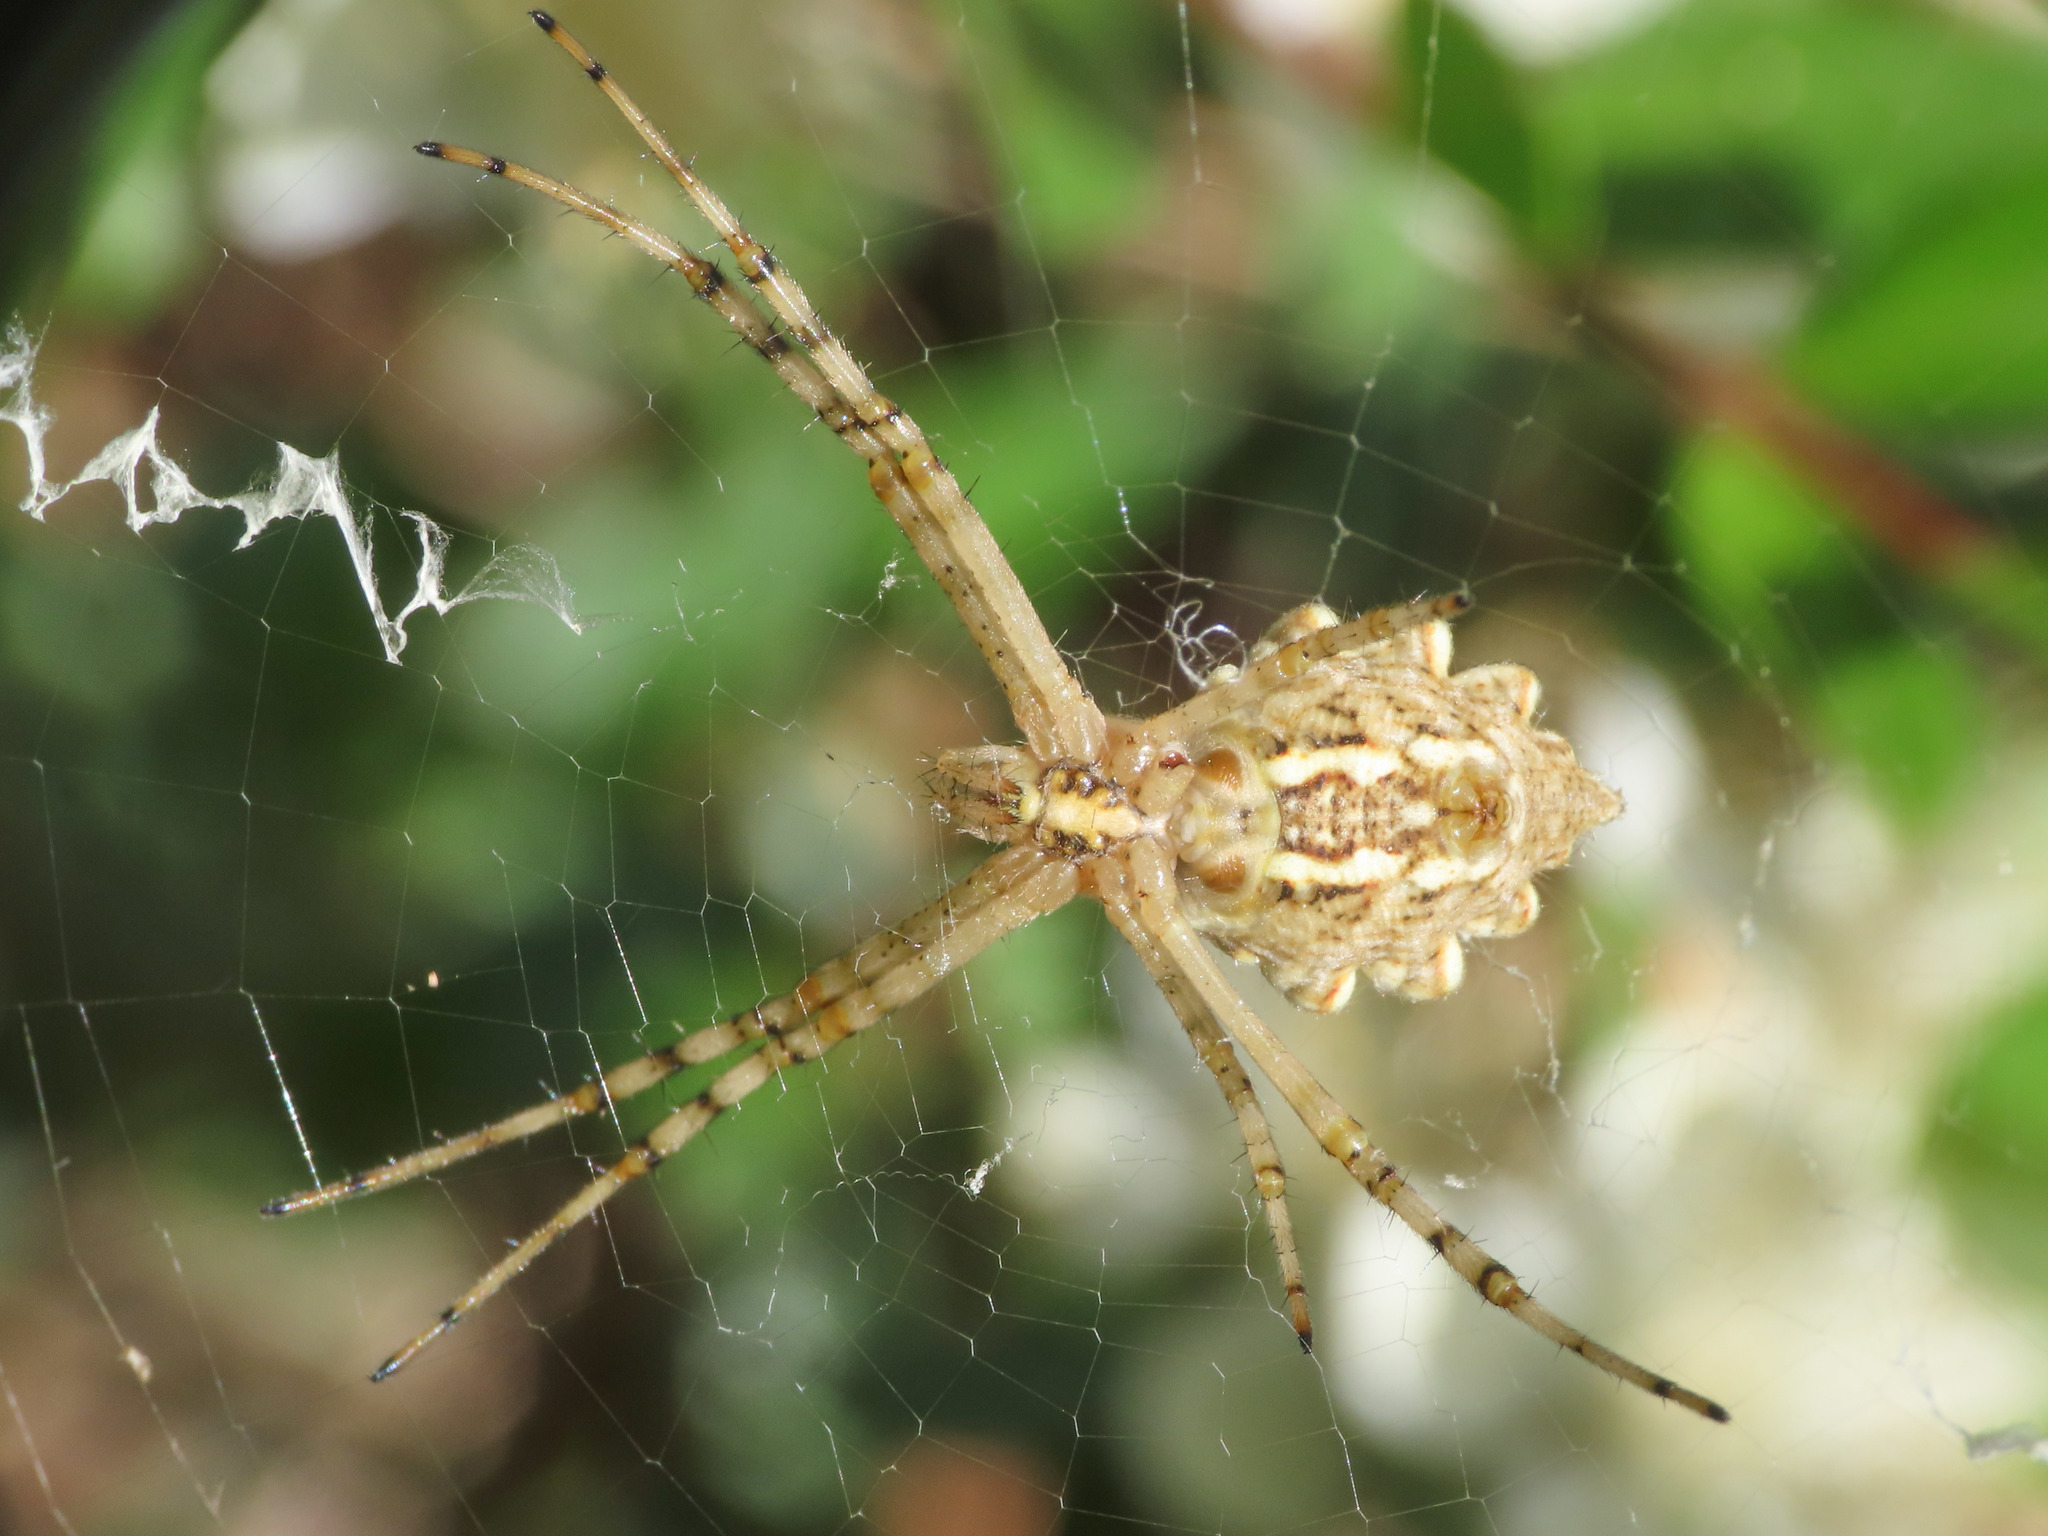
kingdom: Animalia
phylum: Arthropoda
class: Arachnida
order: Araneae
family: Araneidae
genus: Argiope
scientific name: Argiope lobata
